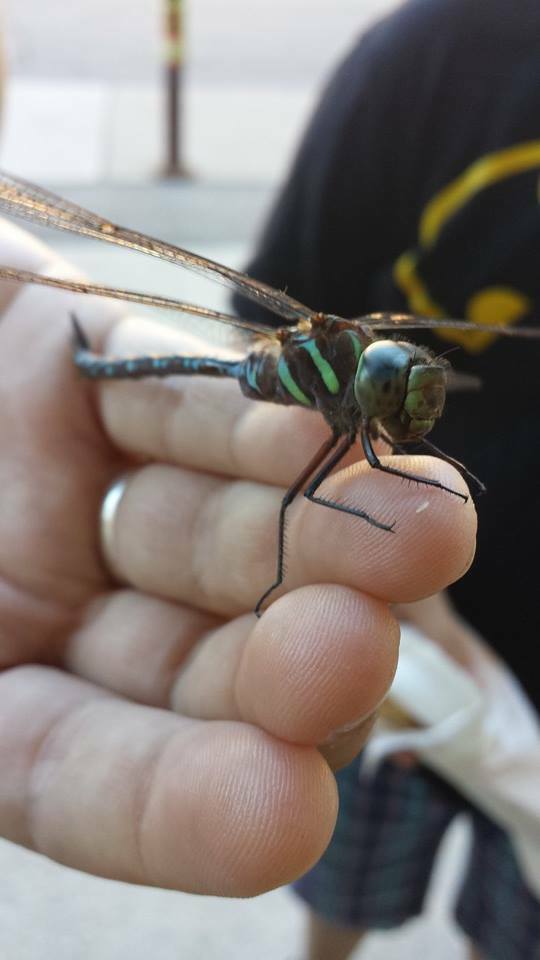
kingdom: Animalia
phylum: Arthropoda
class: Insecta
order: Odonata
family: Aeshnidae
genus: Aeshna
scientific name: Aeshna tuberculifera
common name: Aeschne à tubercules
